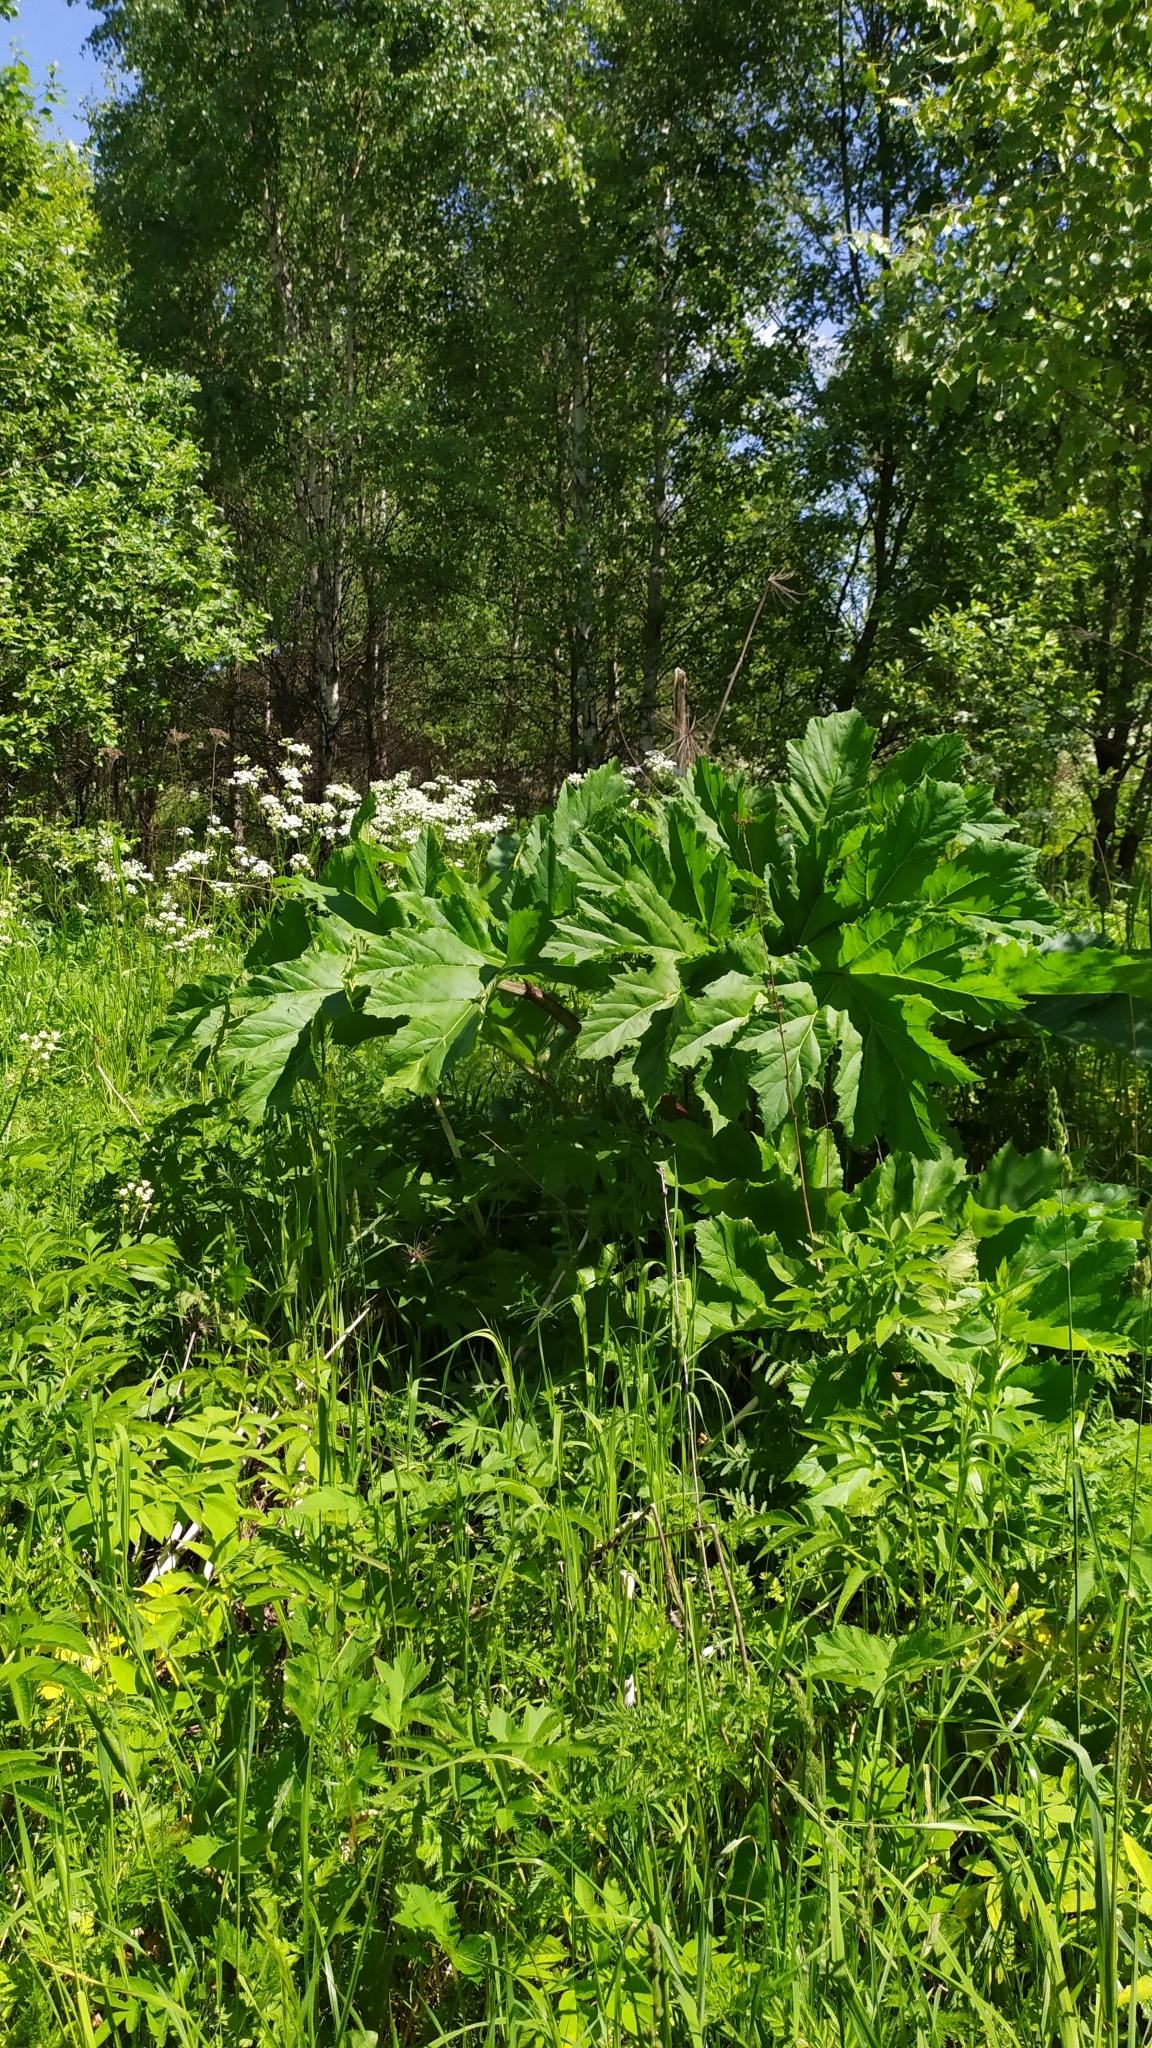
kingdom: Plantae
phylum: Tracheophyta
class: Magnoliopsida
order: Apiales
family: Apiaceae
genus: Heracleum
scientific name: Heracleum sosnowskyi
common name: Sosnowsky's hogweed
